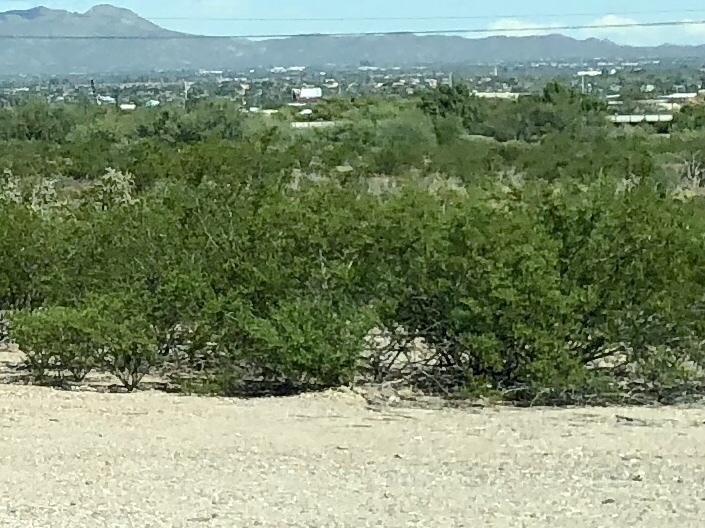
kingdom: Plantae
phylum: Tracheophyta
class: Magnoliopsida
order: Zygophyllales
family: Zygophyllaceae
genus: Larrea
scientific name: Larrea tridentata
